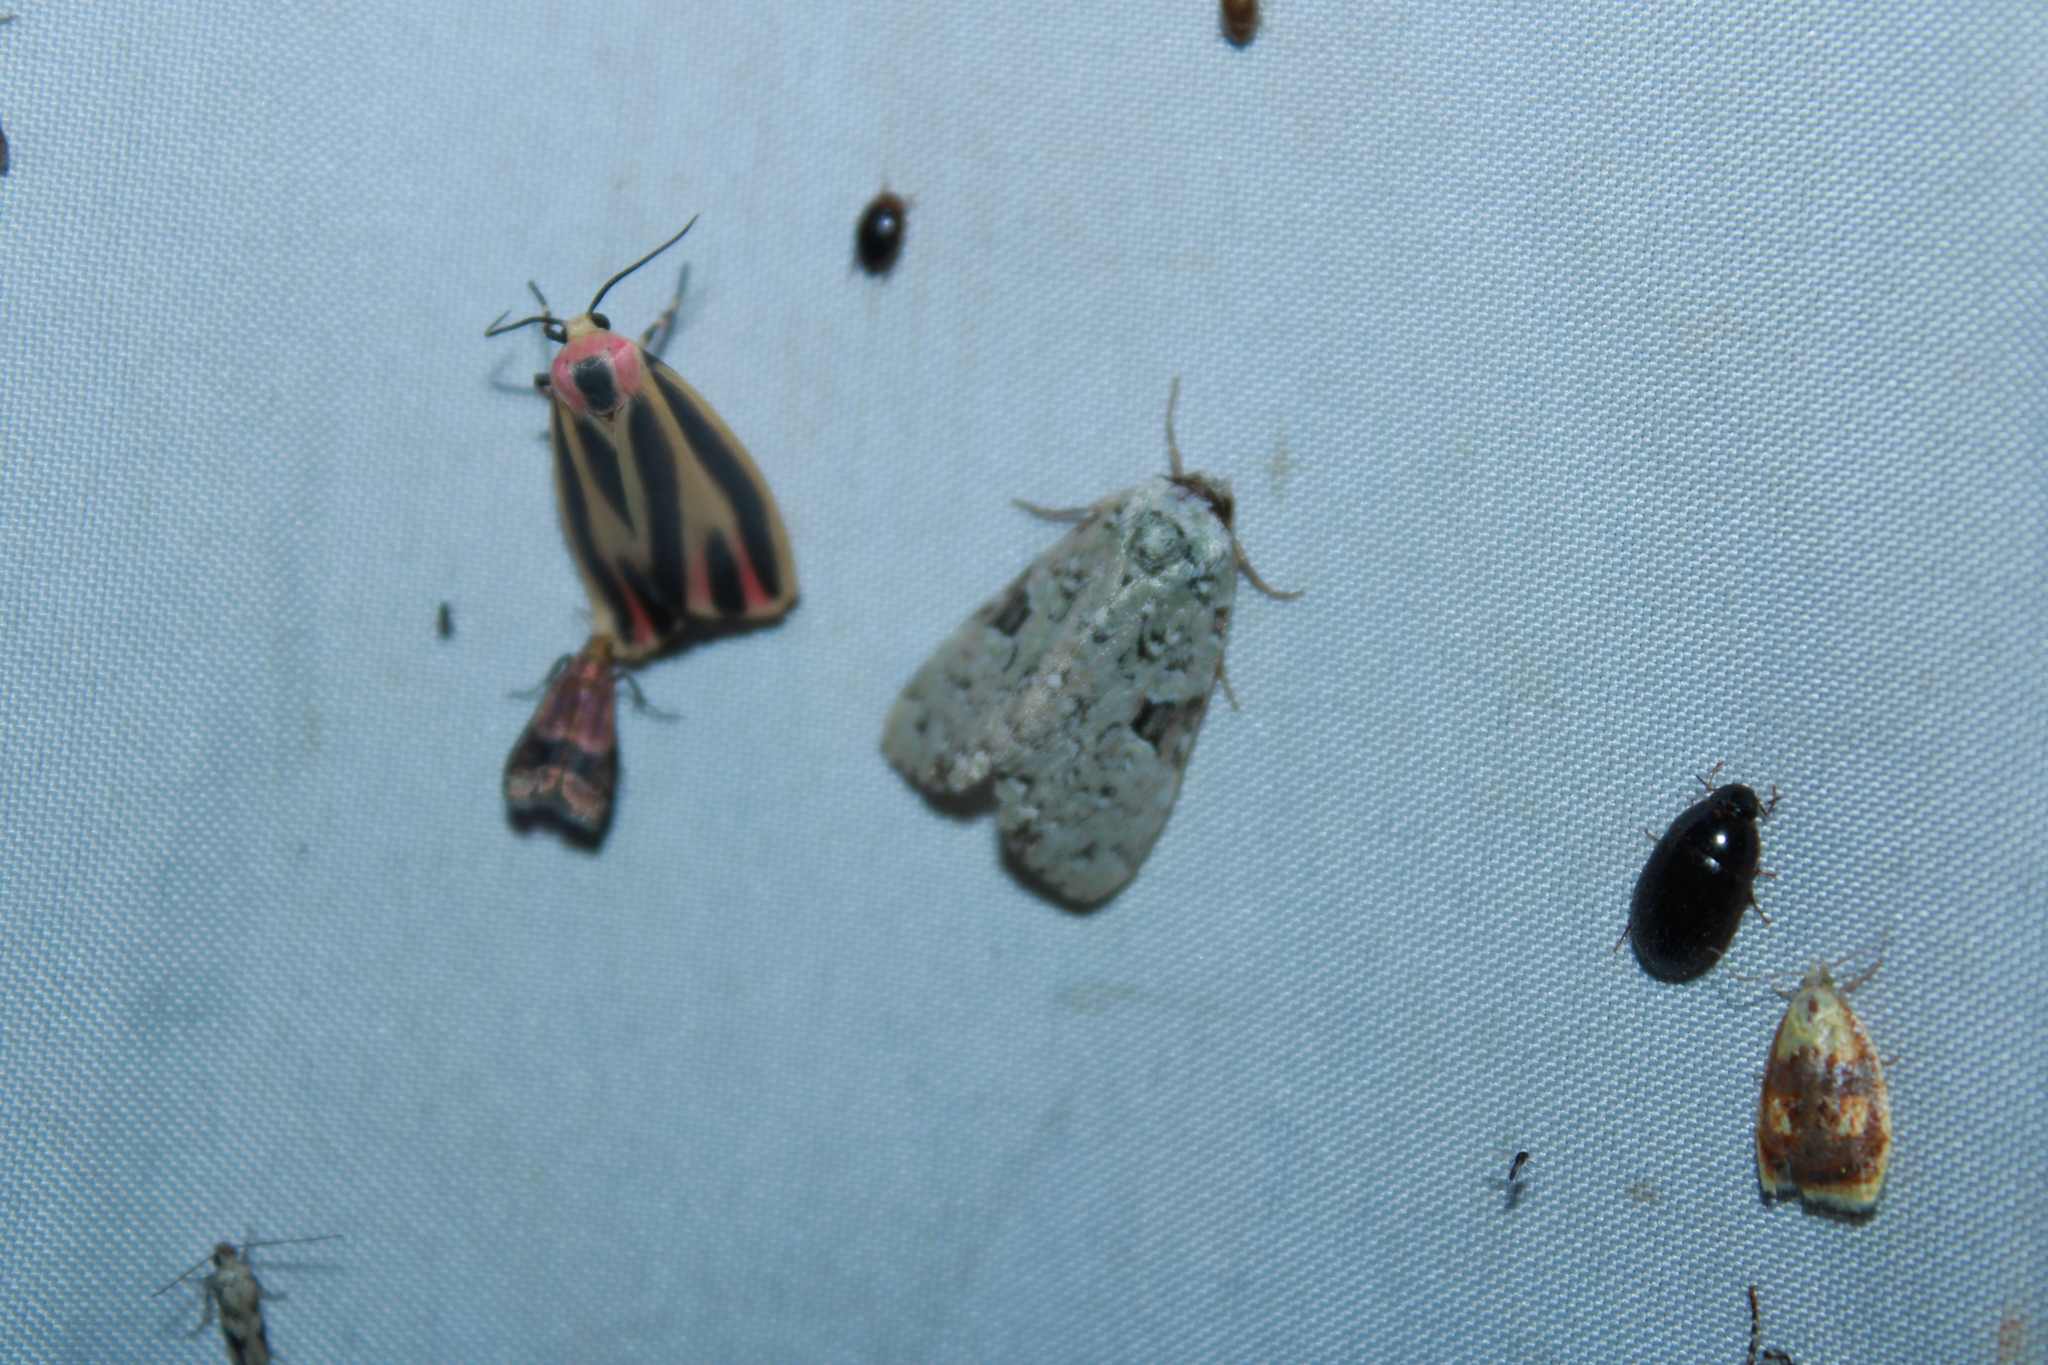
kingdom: Animalia
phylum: Arthropoda
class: Insecta
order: Lepidoptera
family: Noctuidae
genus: Leuconycta
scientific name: Leuconycta diphteroides
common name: Green leuconycta moth
